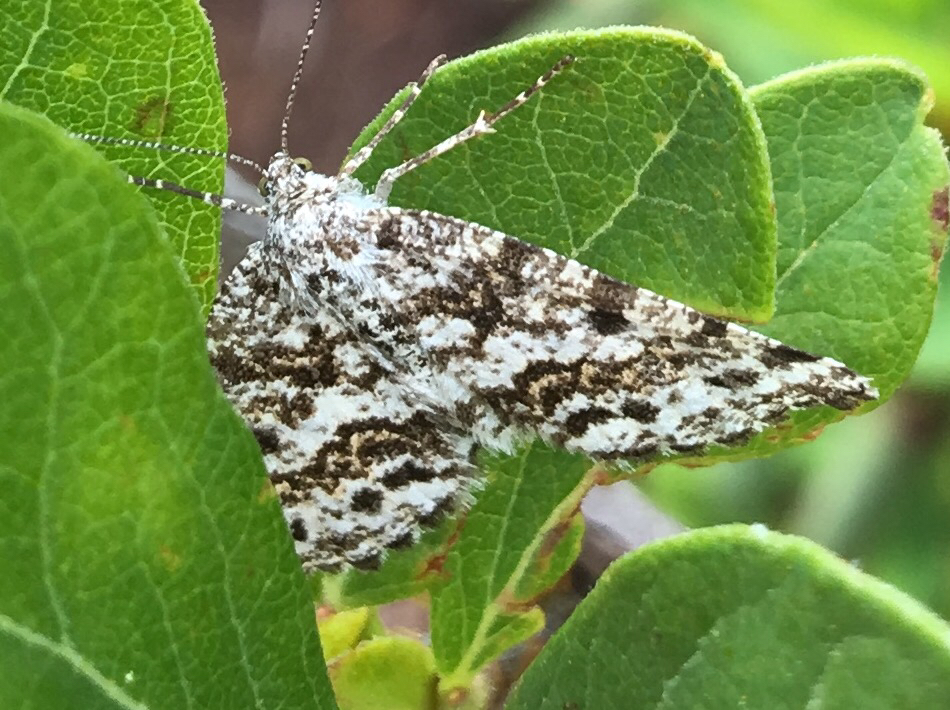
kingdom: Animalia
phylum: Arthropoda
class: Insecta
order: Lepidoptera
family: Geometridae
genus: Eufidonia
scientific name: Eufidonia discospilata
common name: Sharp-lined powder moth
